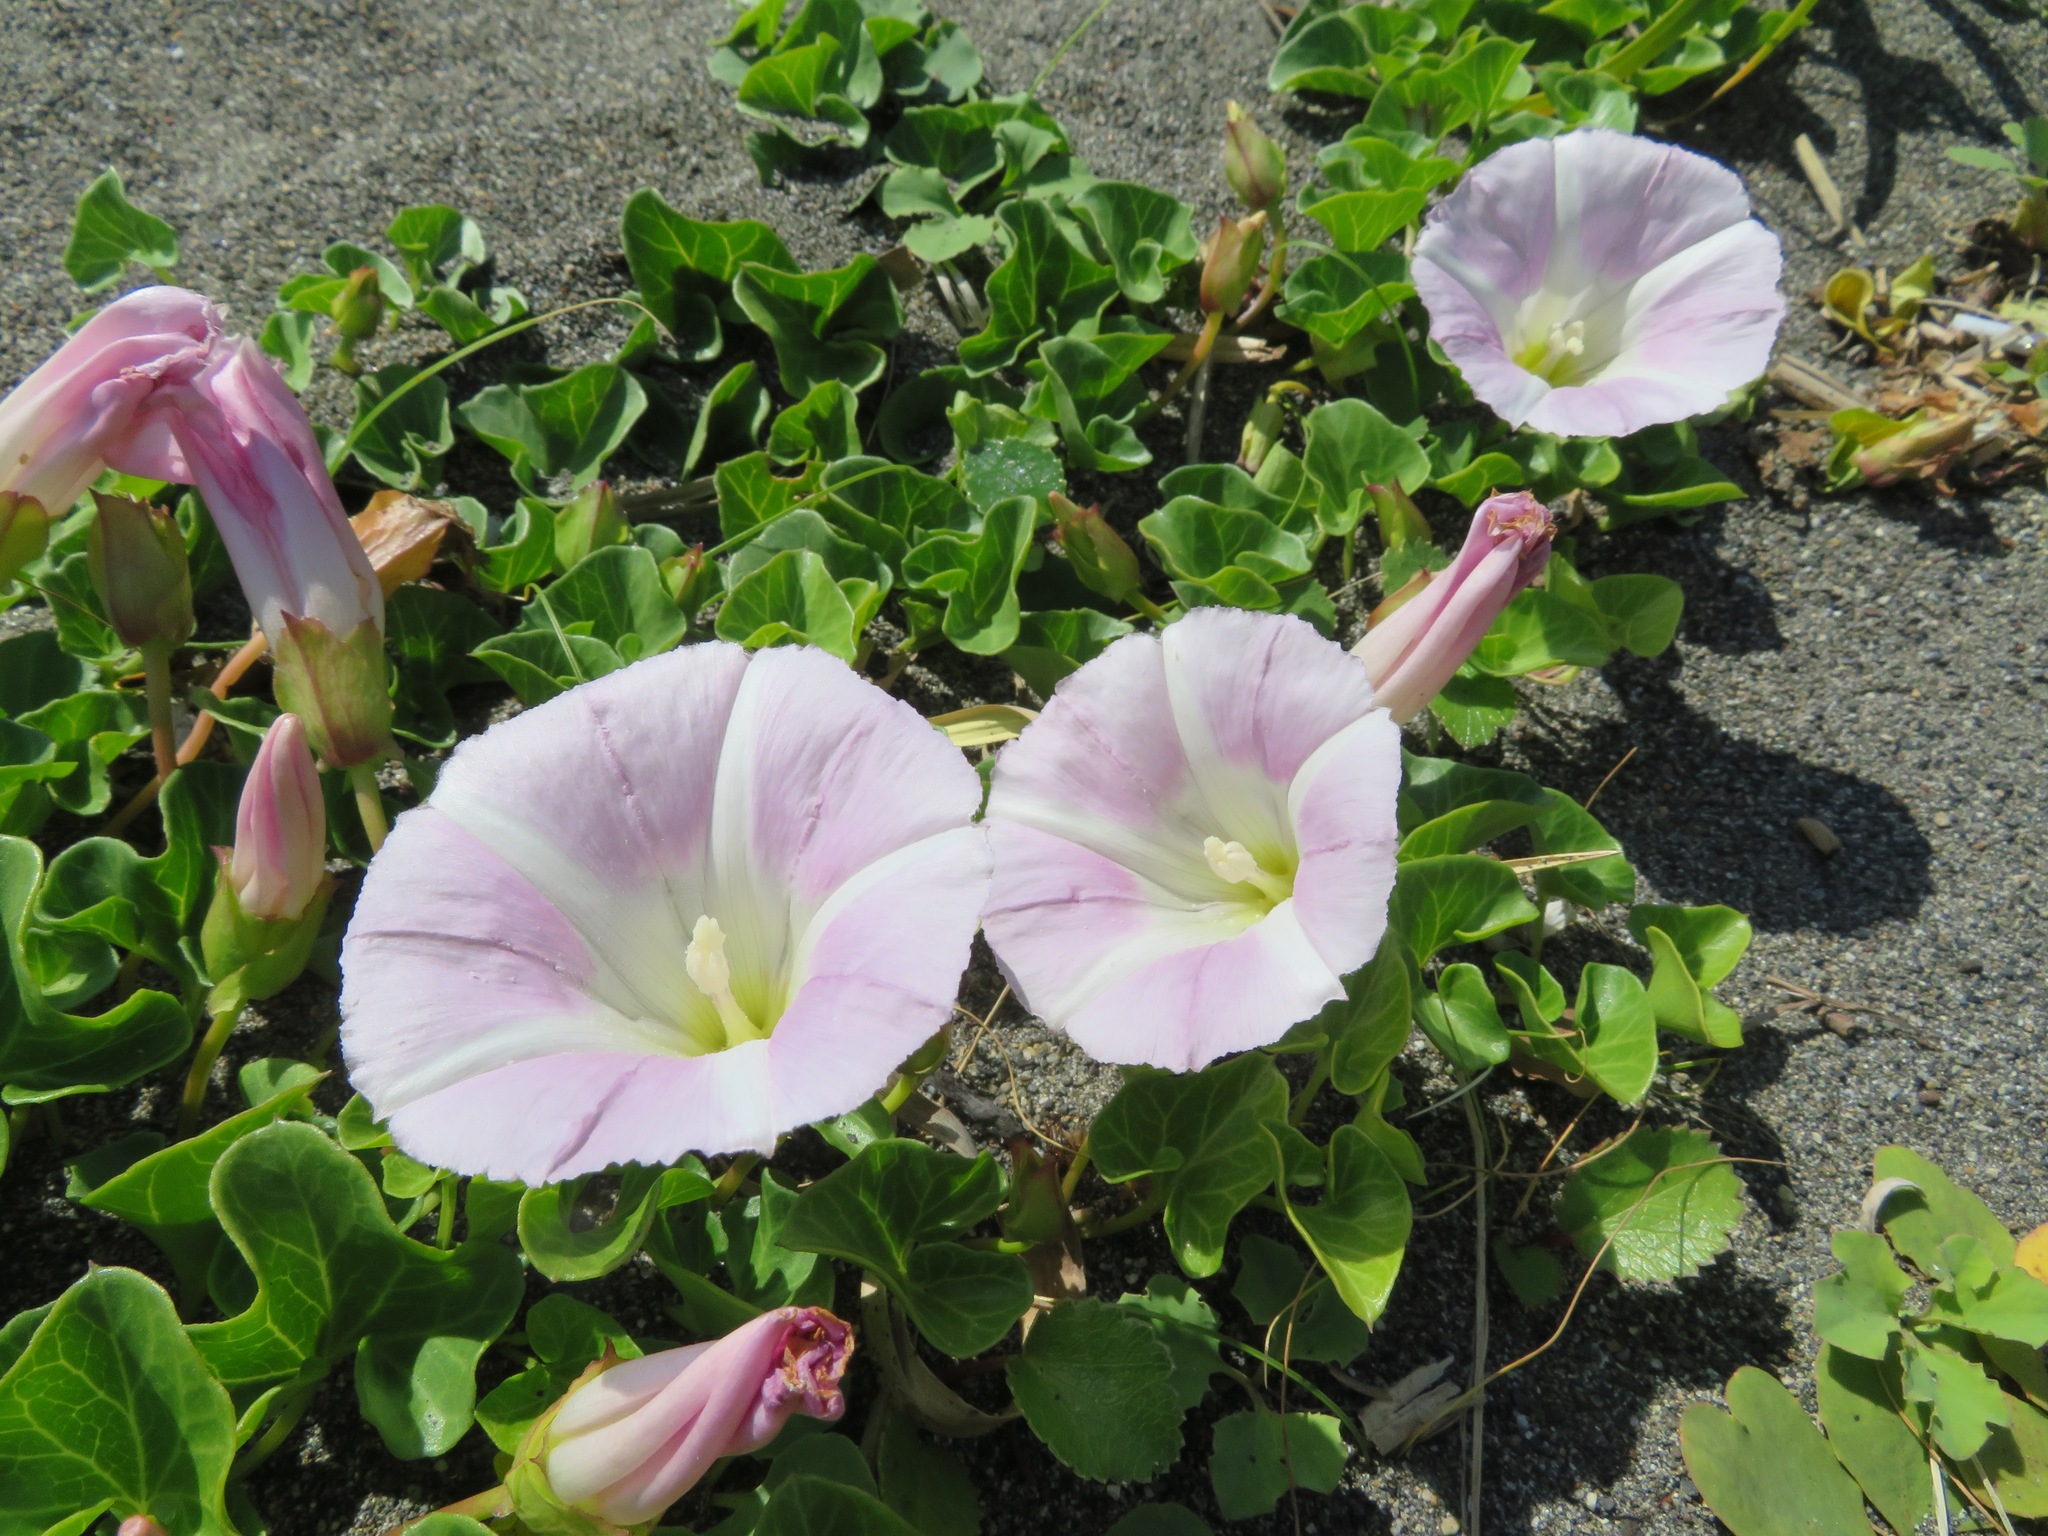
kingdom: Plantae
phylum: Tracheophyta
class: Magnoliopsida
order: Solanales
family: Convolvulaceae
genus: Calystegia
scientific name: Calystegia soldanella
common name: Sea bindweed
